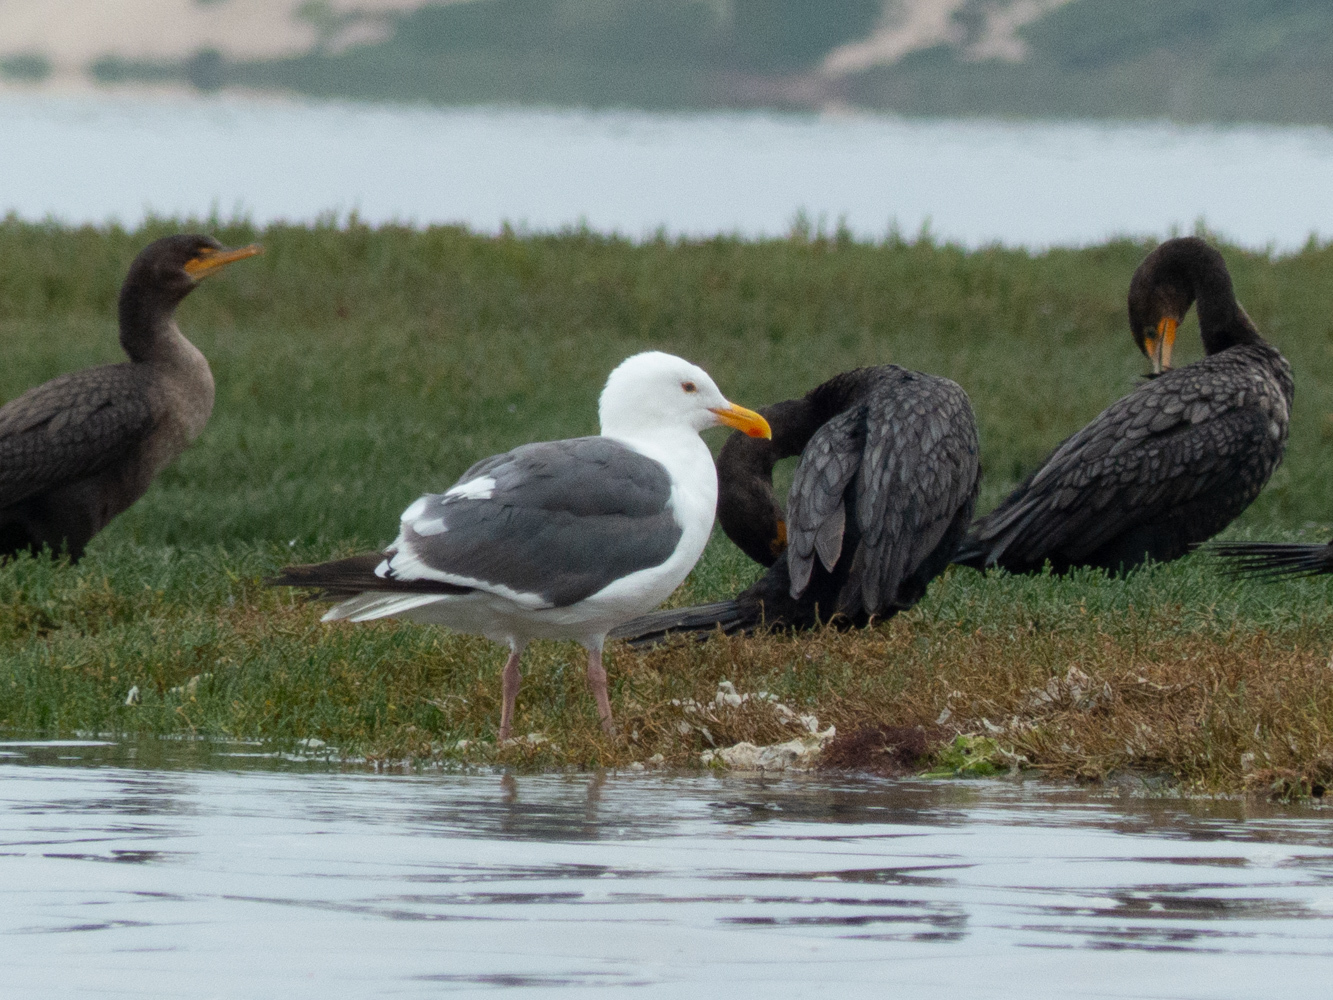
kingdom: Animalia
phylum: Chordata
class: Aves
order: Charadriiformes
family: Laridae
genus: Larus
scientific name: Larus occidentalis
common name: Western gull
